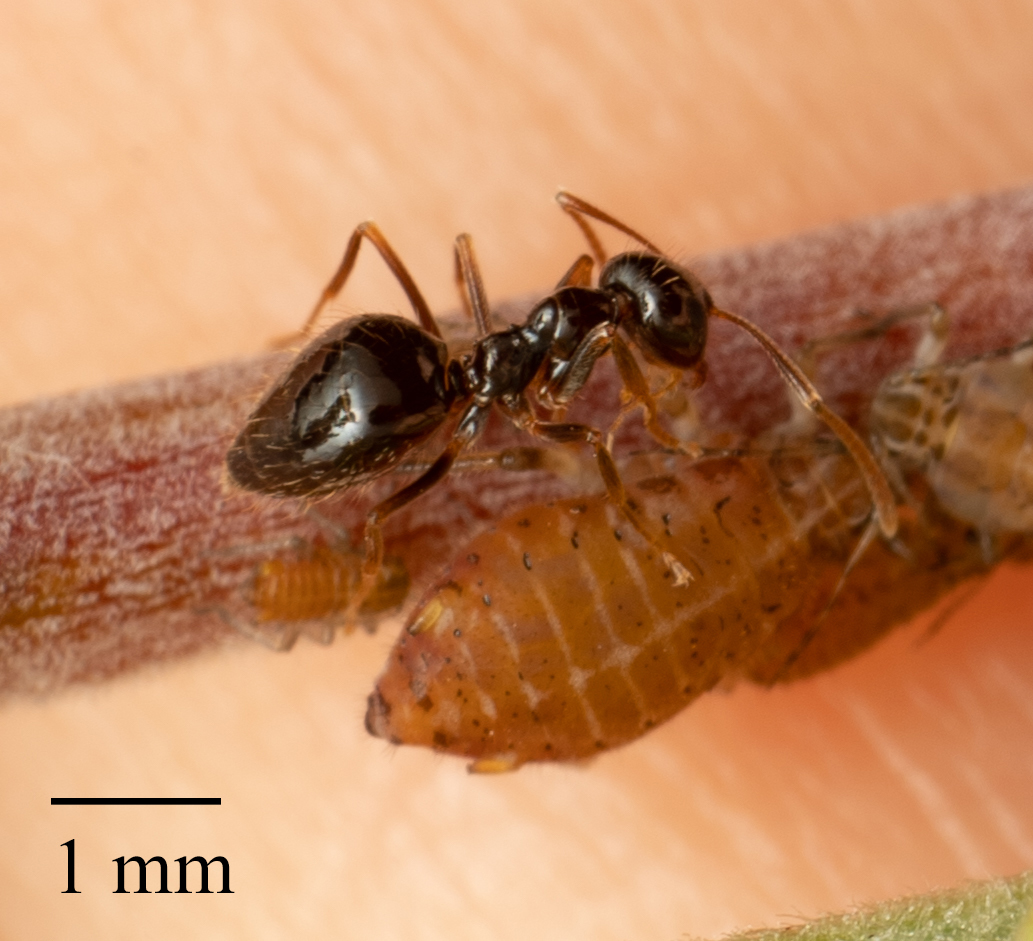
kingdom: Animalia
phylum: Arthropoda
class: Insecta
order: Hymenoptera
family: Formicidae
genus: Prenolepis
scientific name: Prenolepis imparis
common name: Small honey ant
